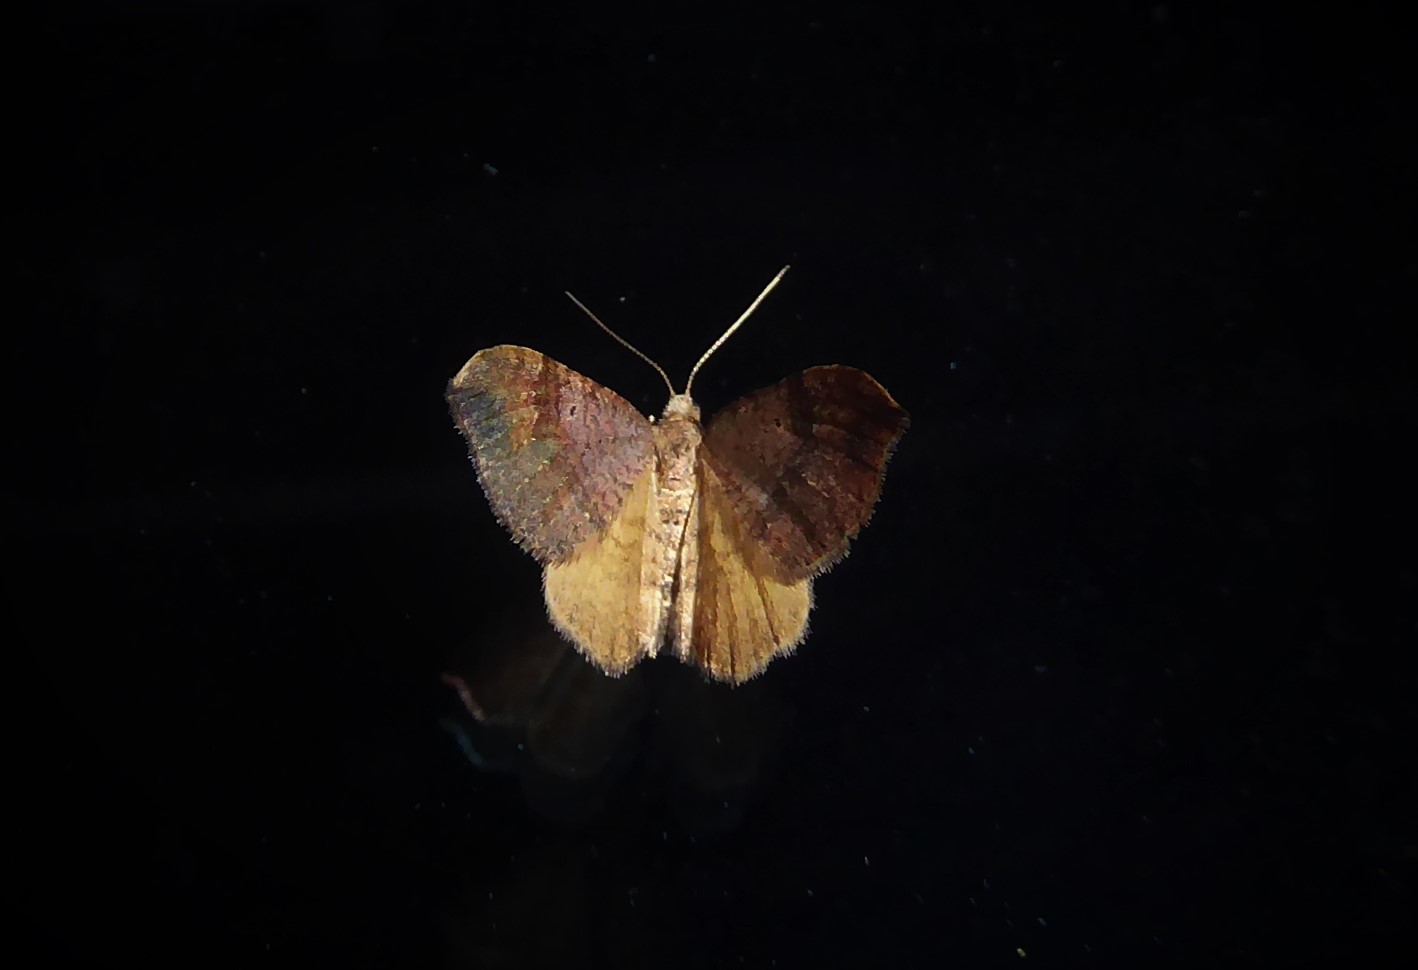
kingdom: Animalia
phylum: Arthropoda
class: Insecta
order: Lepidoptera
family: Geometridae
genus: Homodotis
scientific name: Homodotis megaspilata
